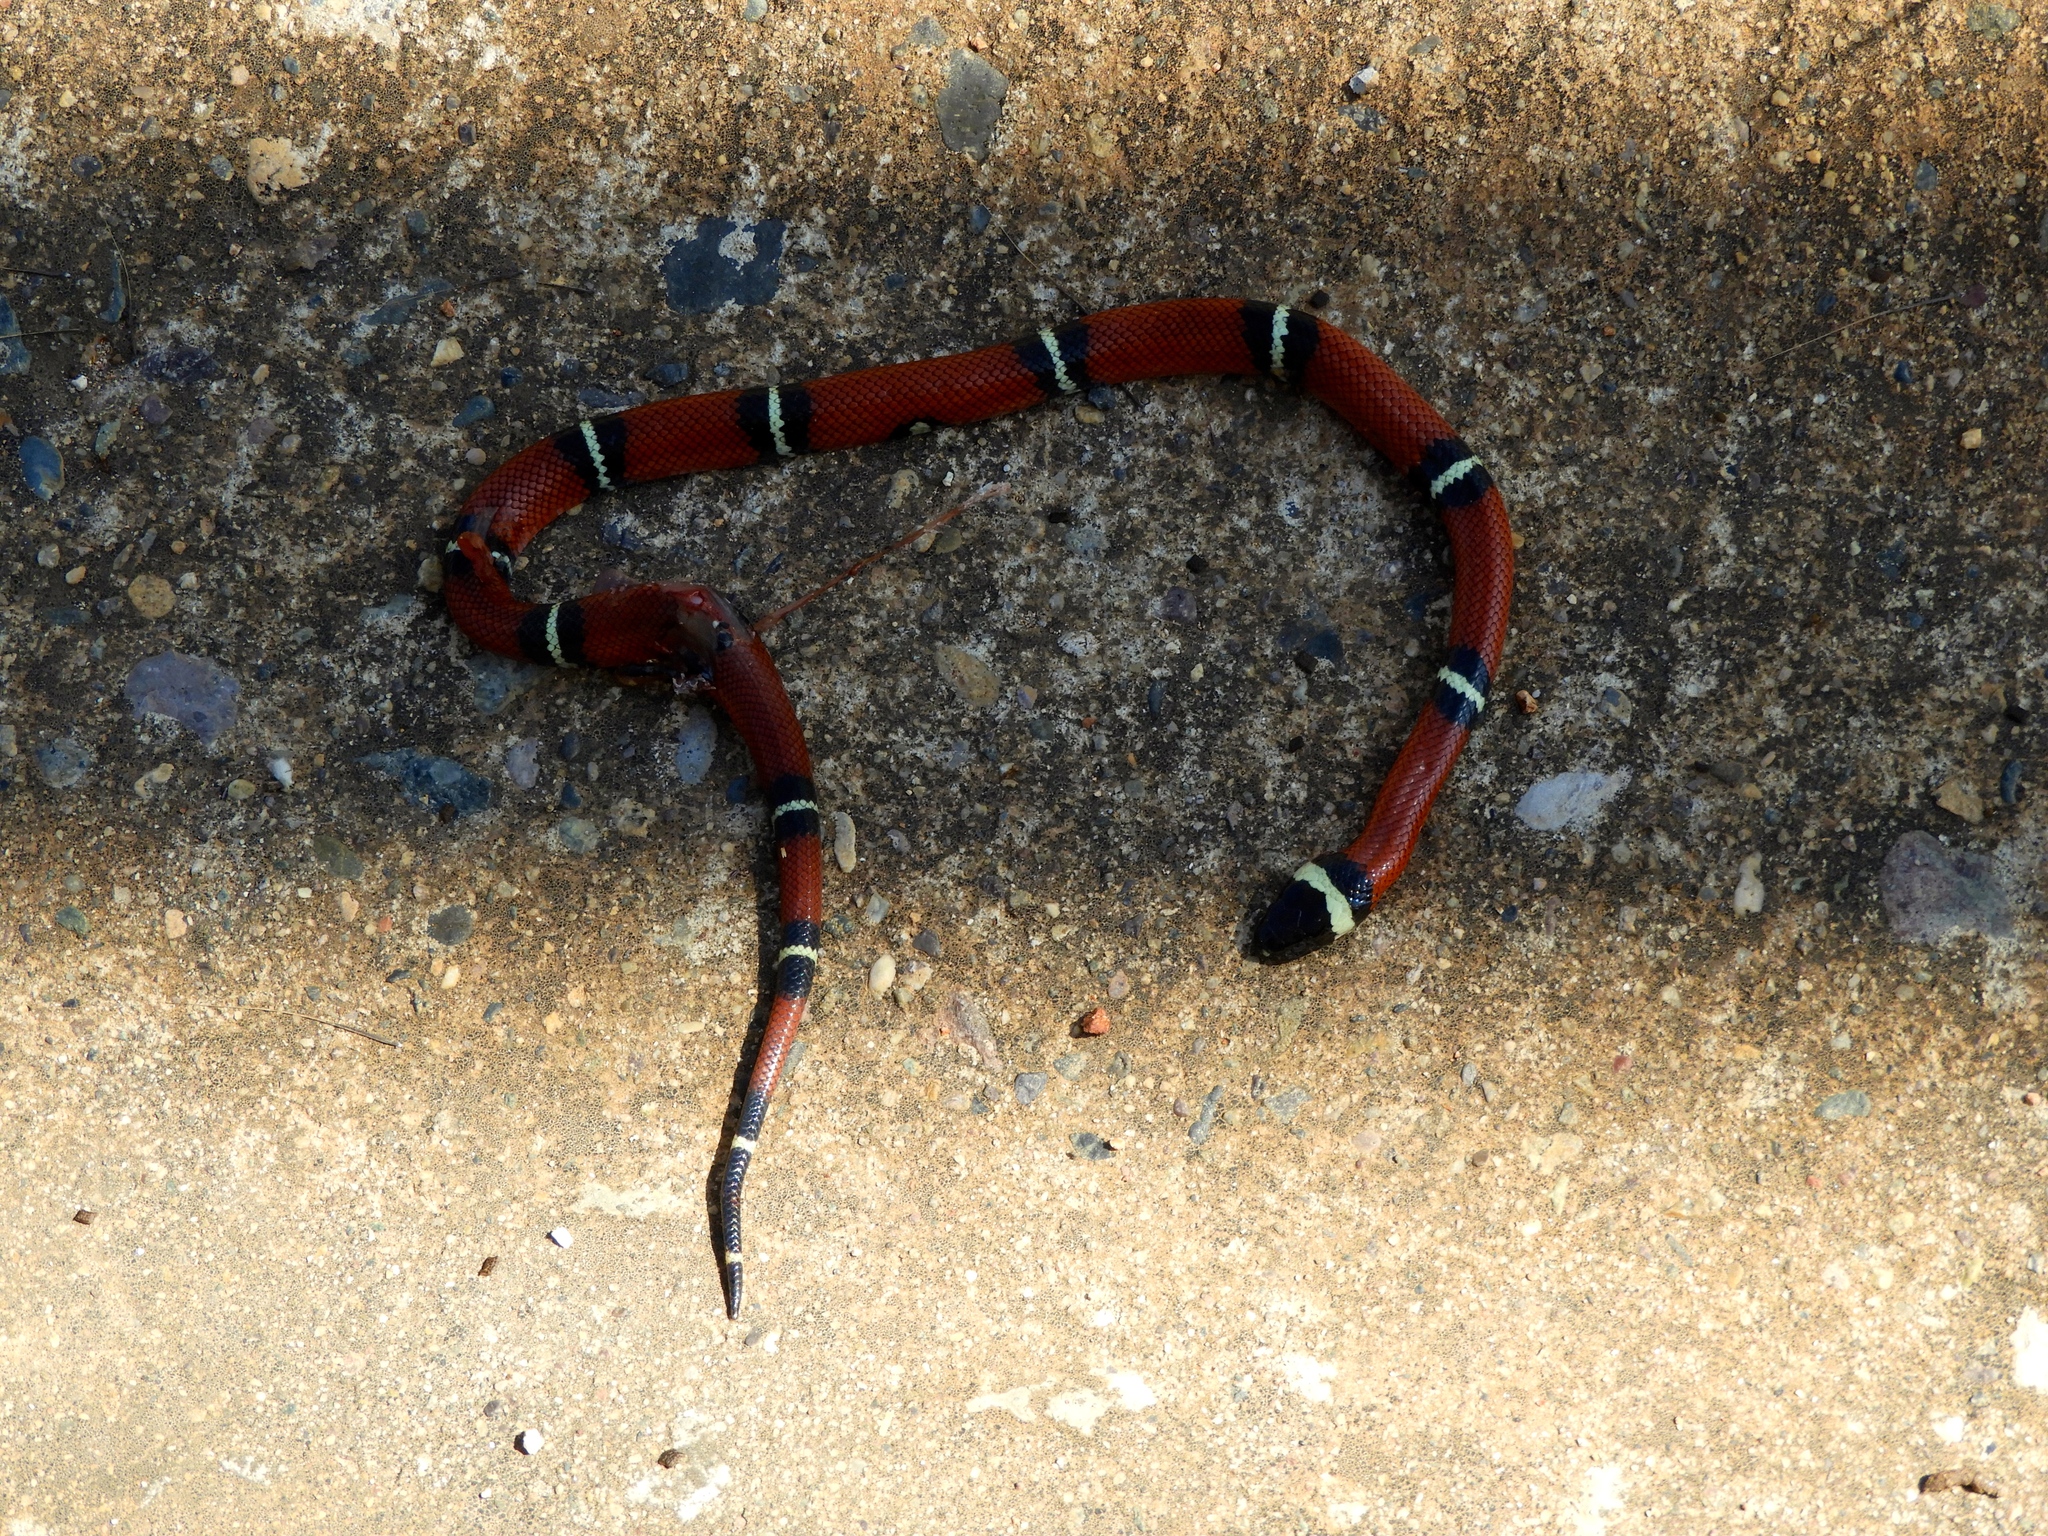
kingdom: Animalia
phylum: Chordata
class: Squamata
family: Colubridae
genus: Lampropeltis
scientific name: Lampropeltis polyzona
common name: Atlantic central american milksnake
